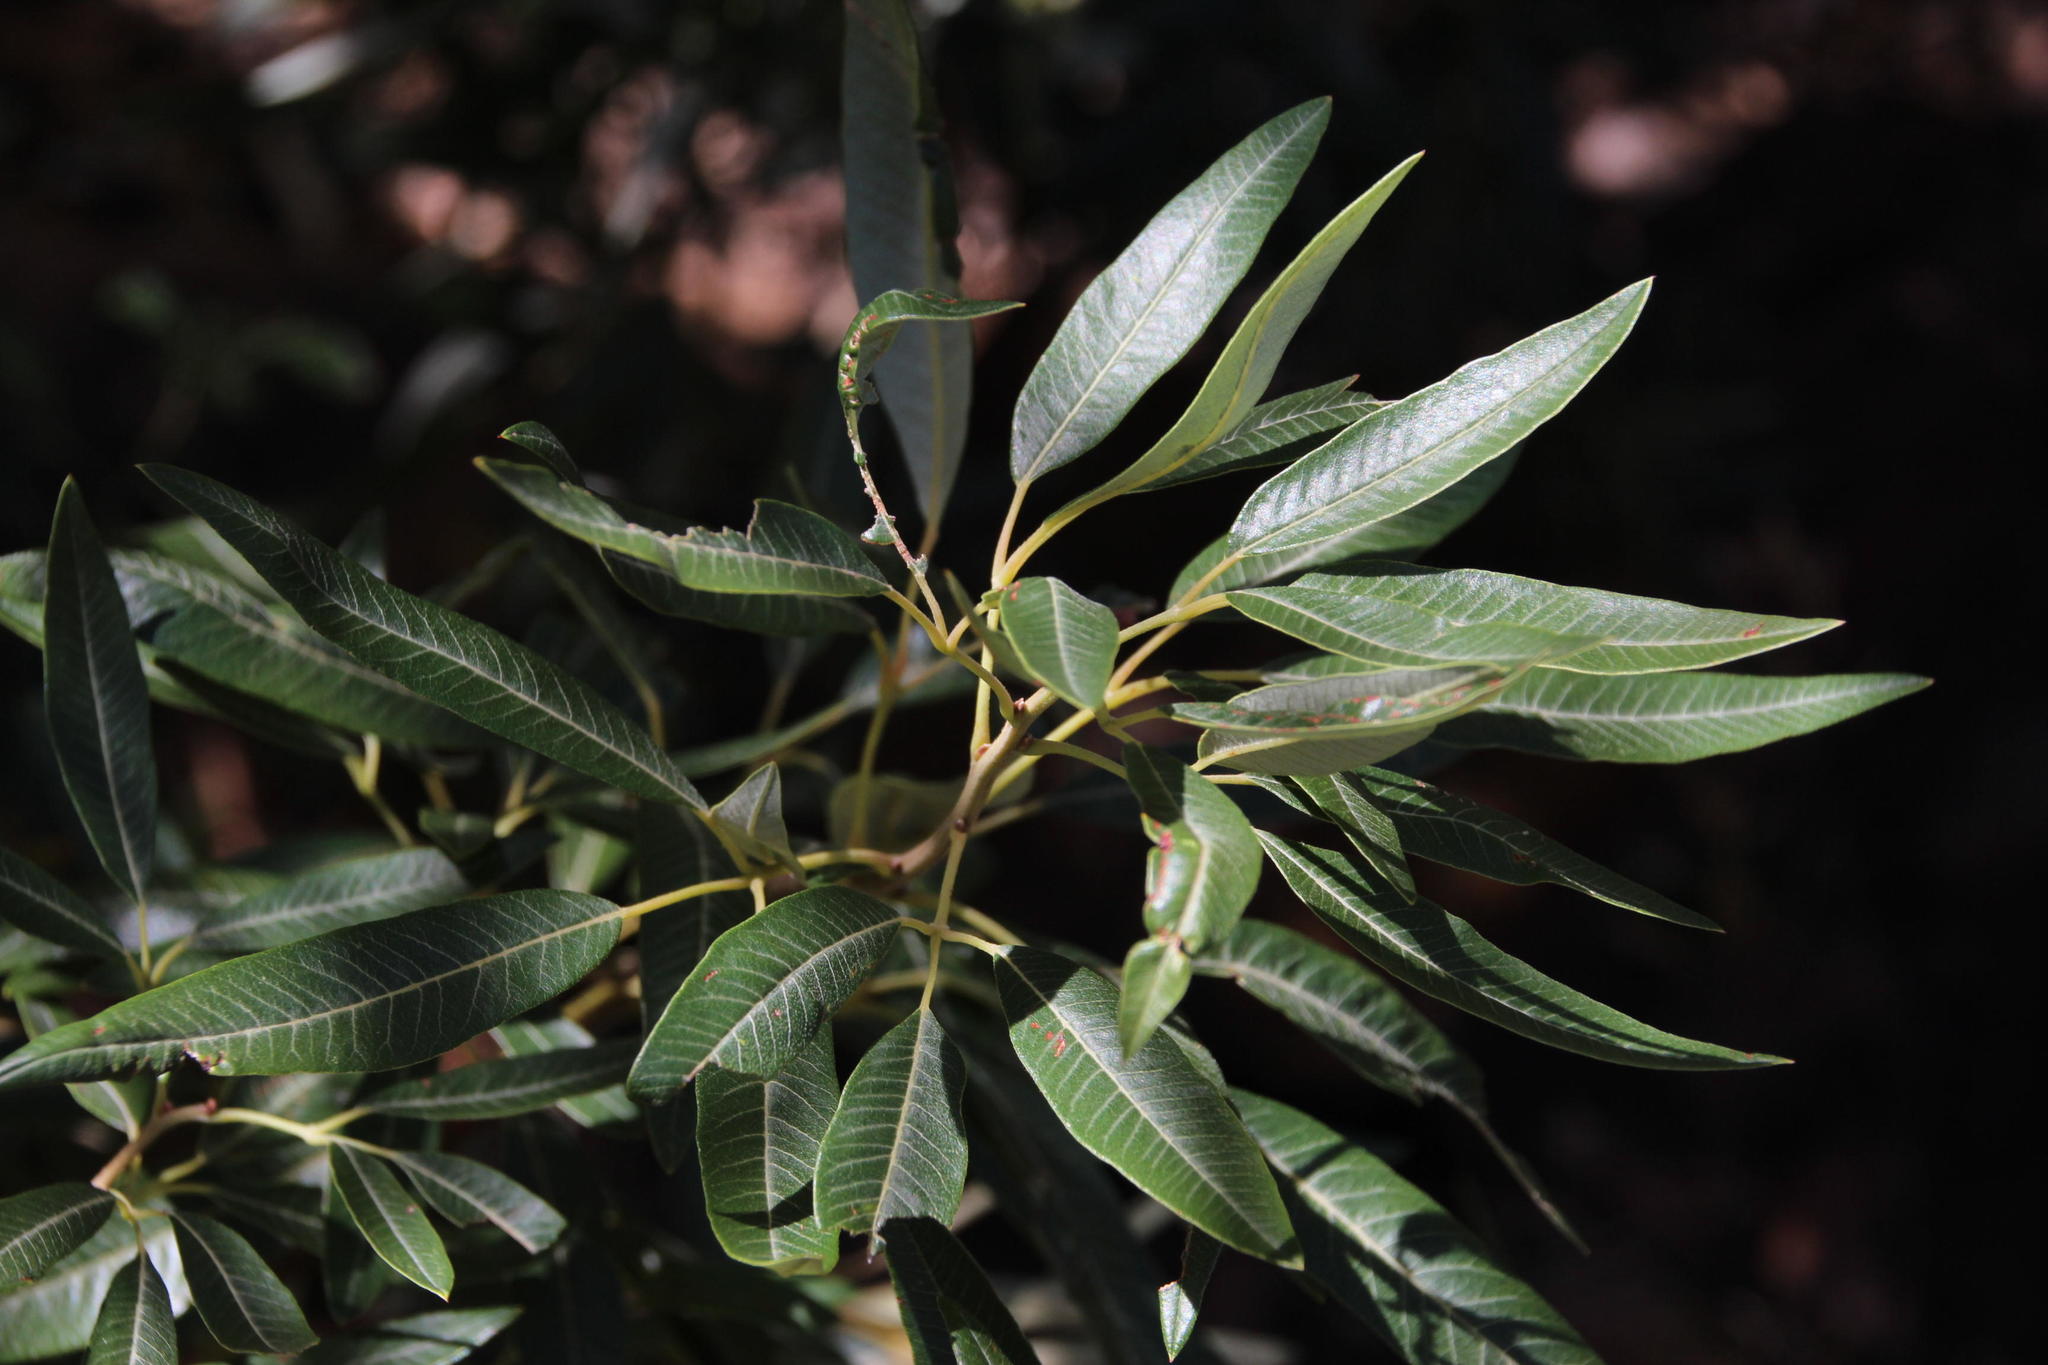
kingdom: Plantae
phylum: Tracheophyta
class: Magnoliopsida
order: Sapindales
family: Anacardiaceae
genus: Searsia
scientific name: Searsia angustifolia
